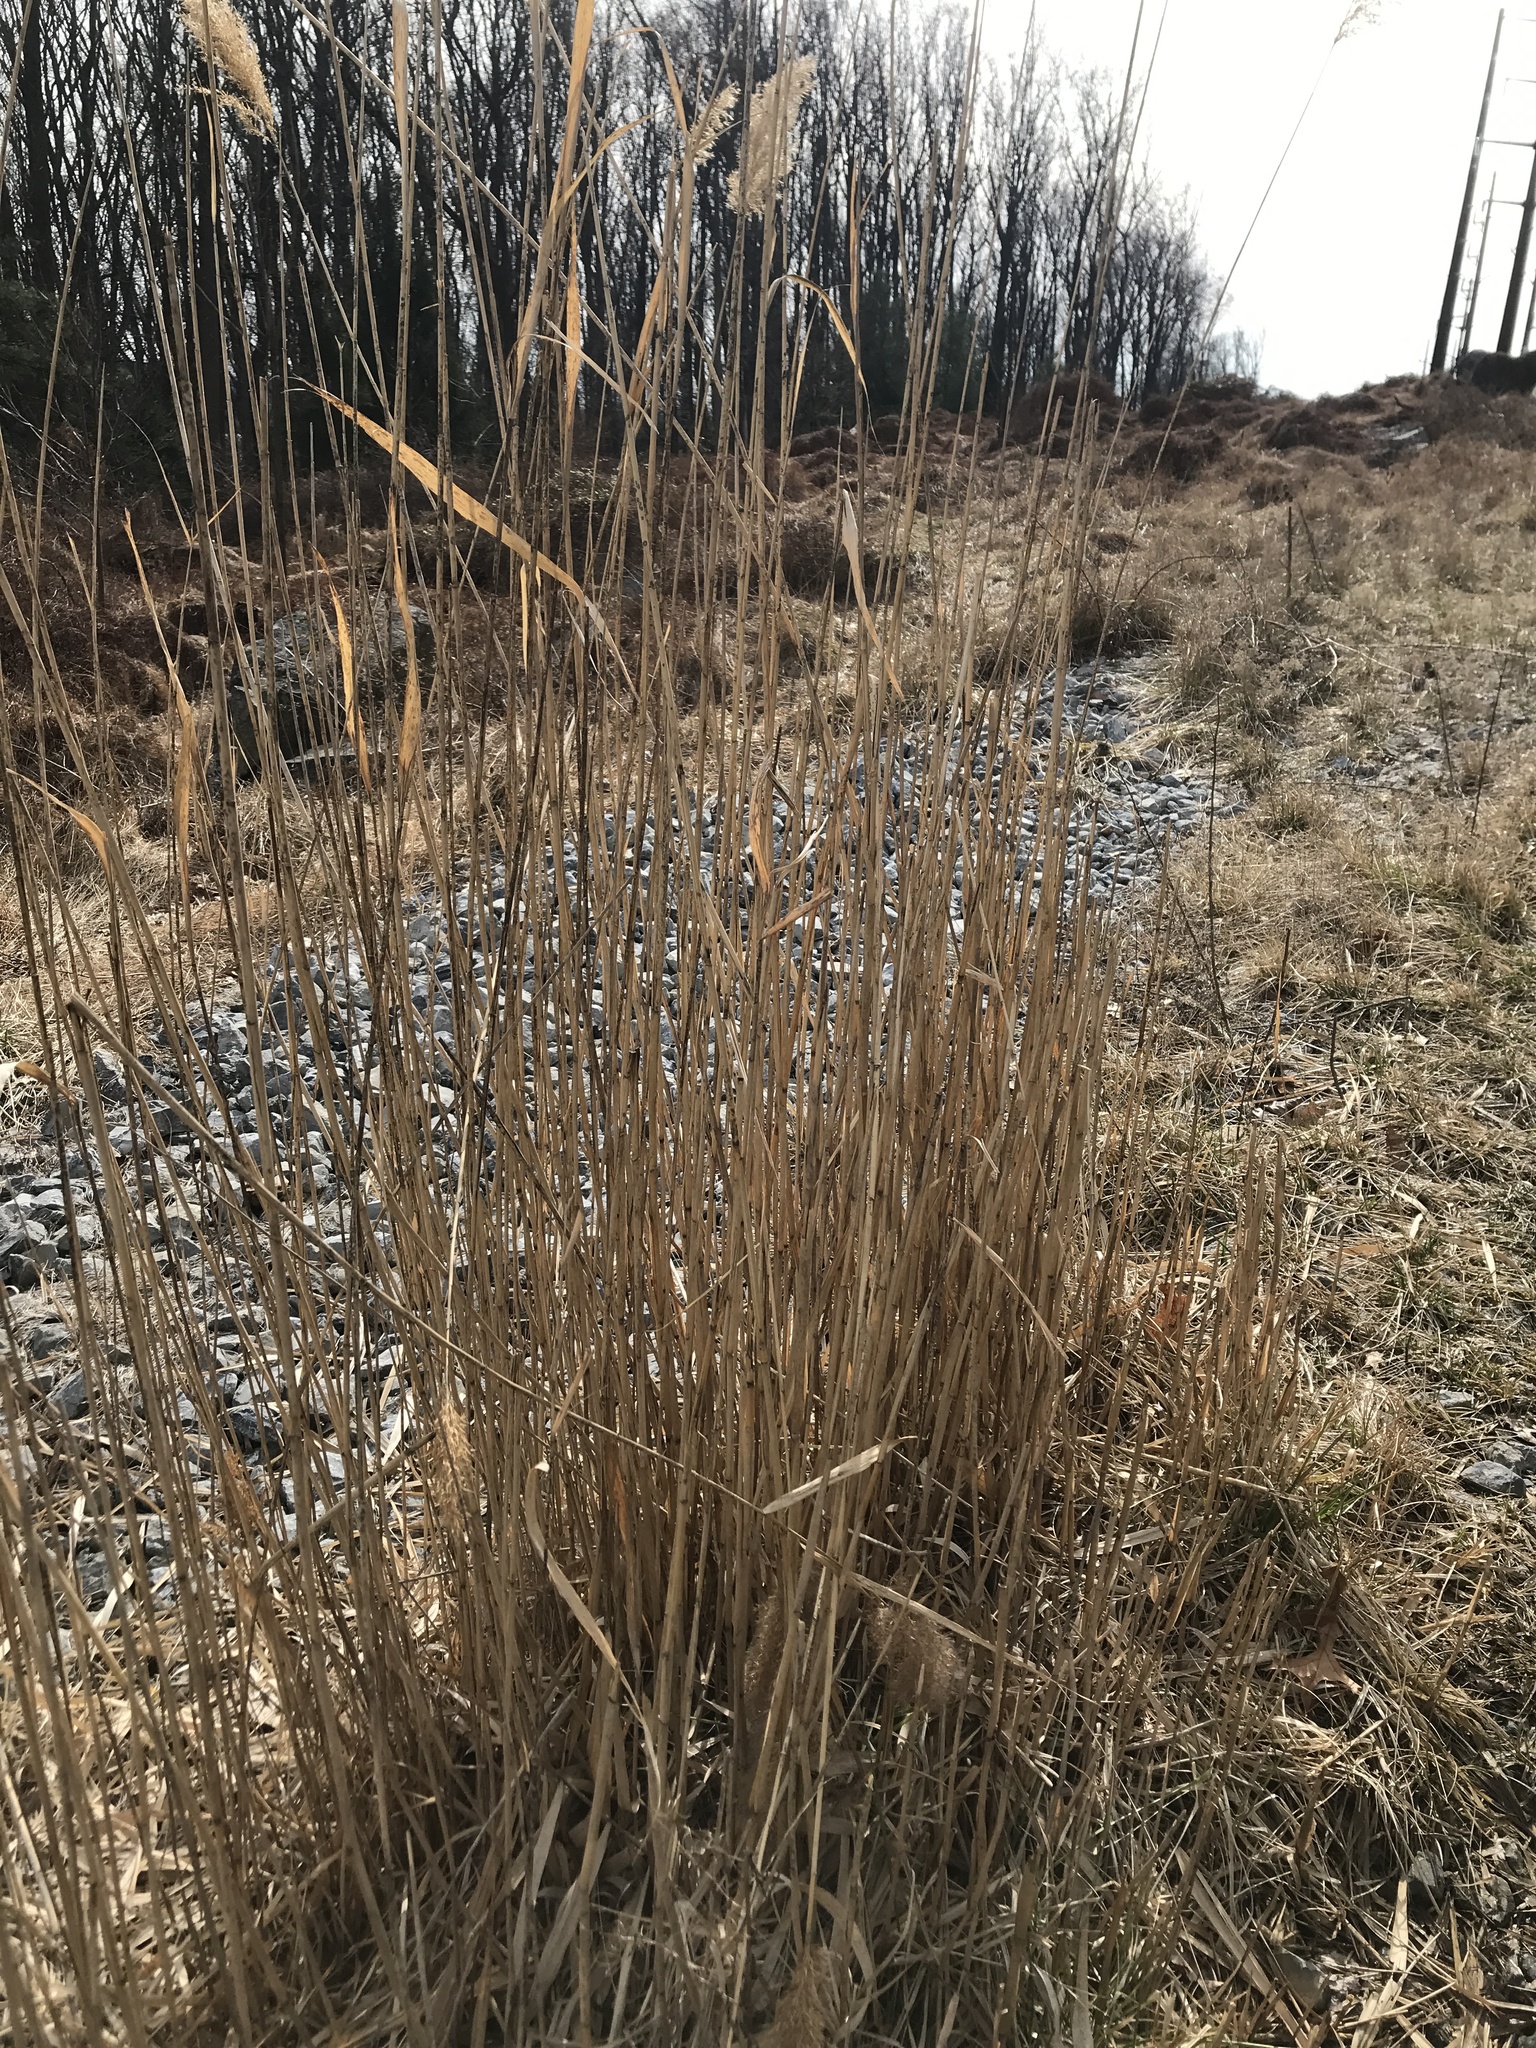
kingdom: Plantae
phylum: Tracheophyta
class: Liliopsida
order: Poales
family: Poaceae
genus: Phragmites
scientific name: Phragmites australis
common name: Common reed
